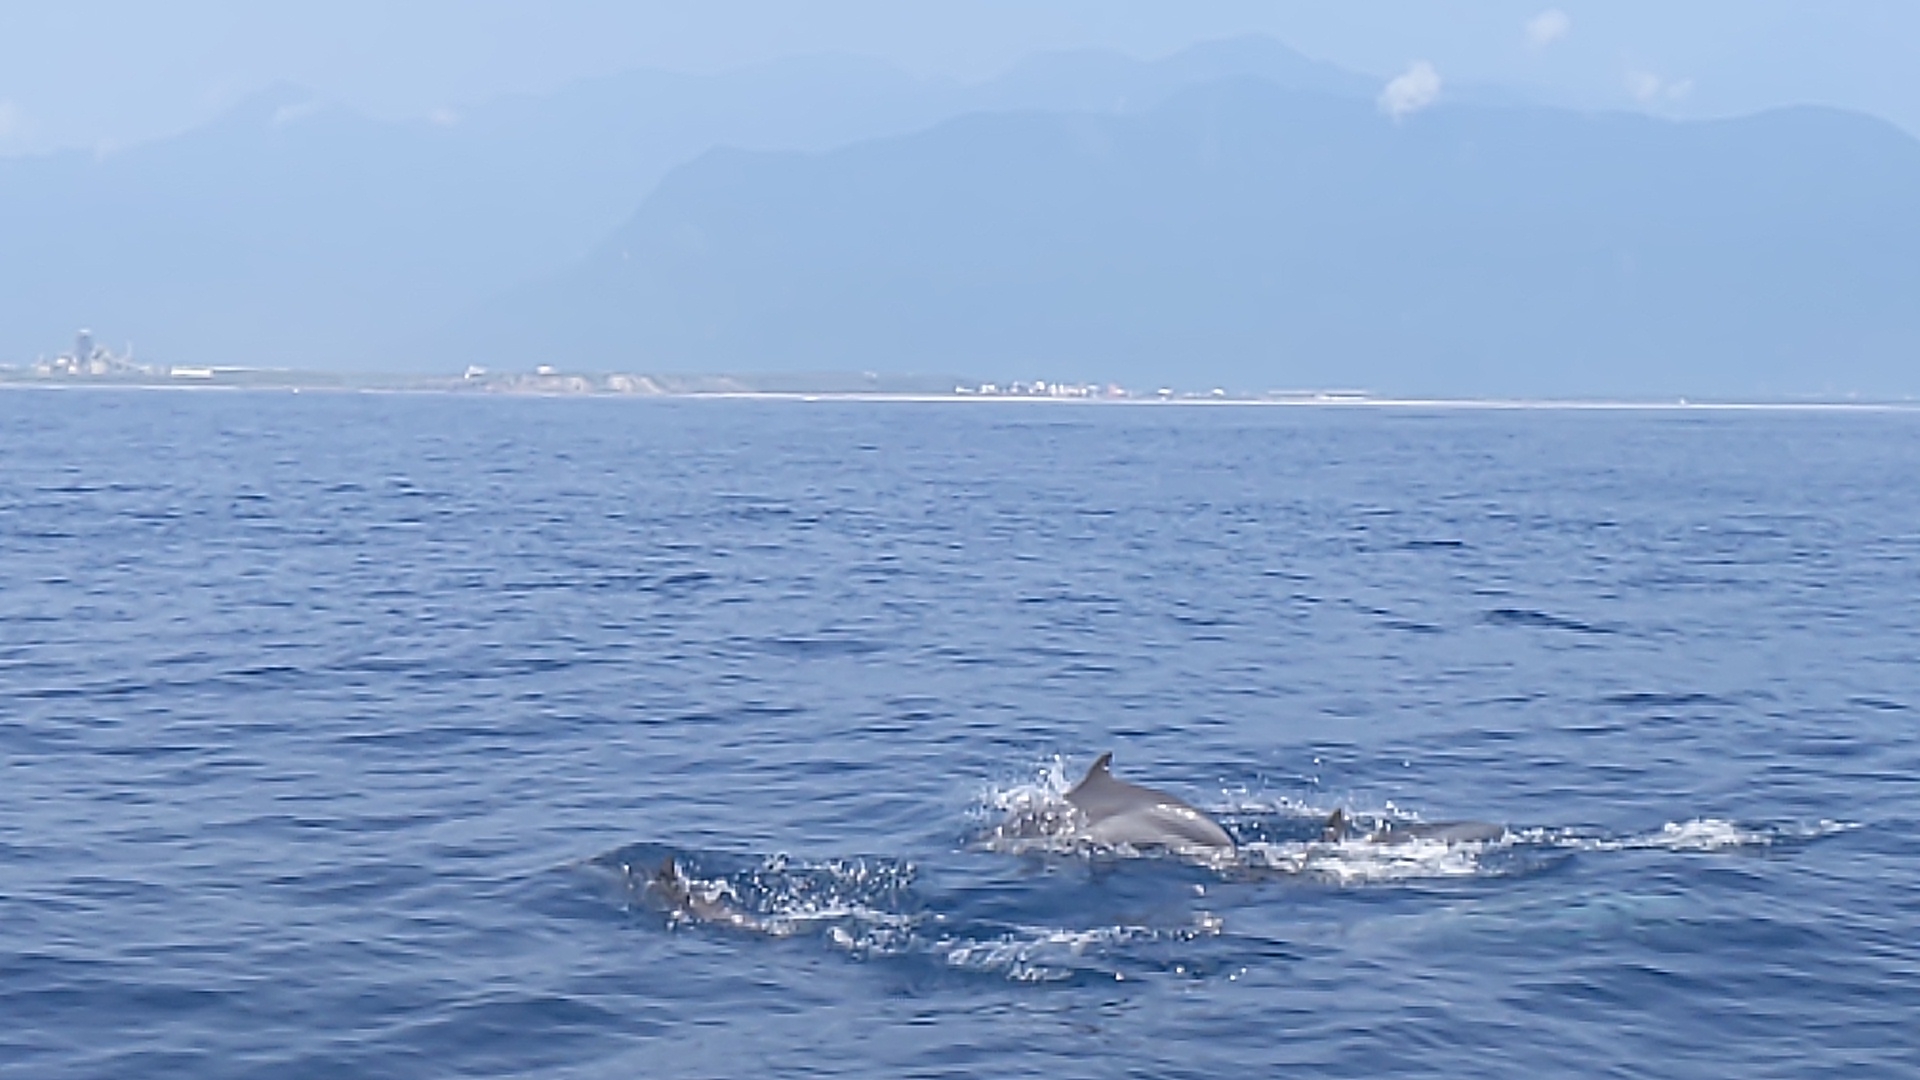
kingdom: Animalia
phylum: Chordata
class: Mammalia
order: Cetacea
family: Delphinidae
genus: Stenella
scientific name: Stenella attenuata
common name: Pantropical spotted dolphin
